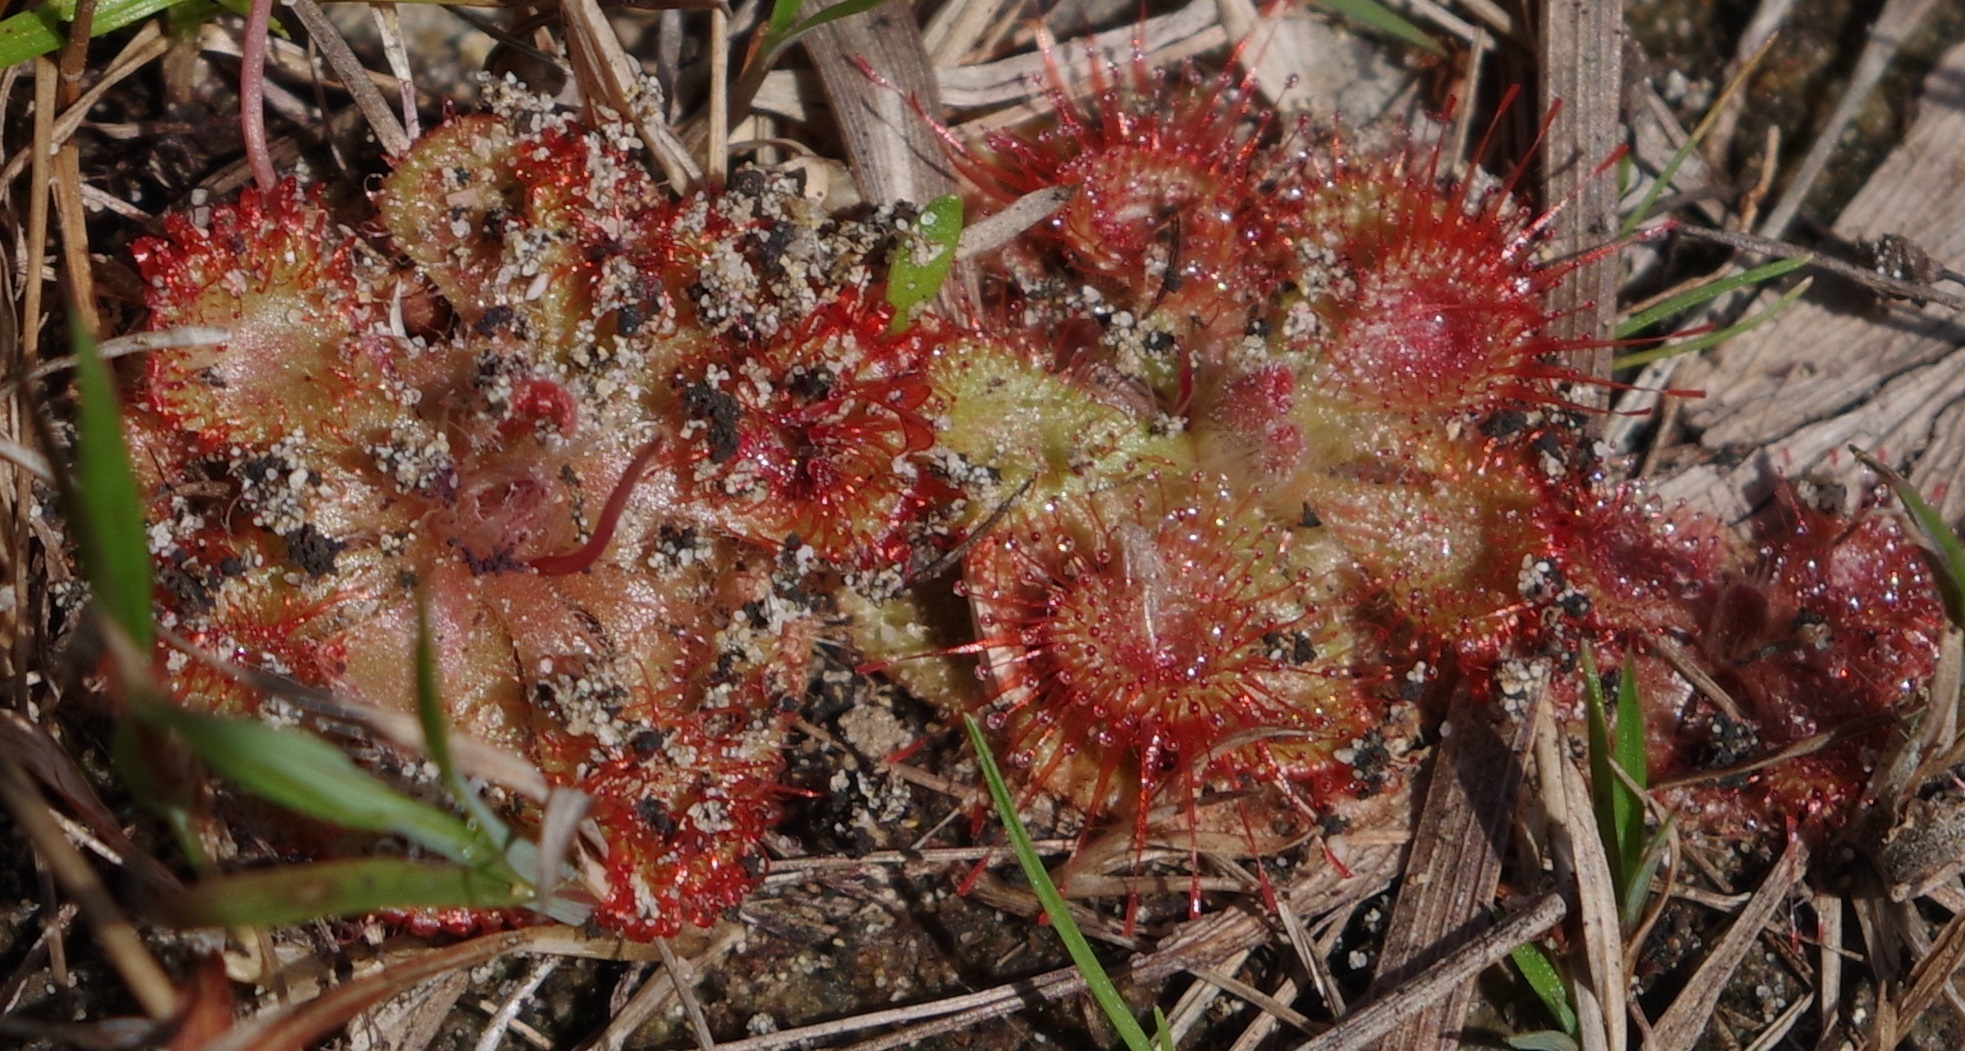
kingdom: Plantae
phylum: Tracheophyta
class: Magnoliopsida
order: Caryophyllales
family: Droseraceae
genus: Drosera
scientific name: Drosera spatulata
